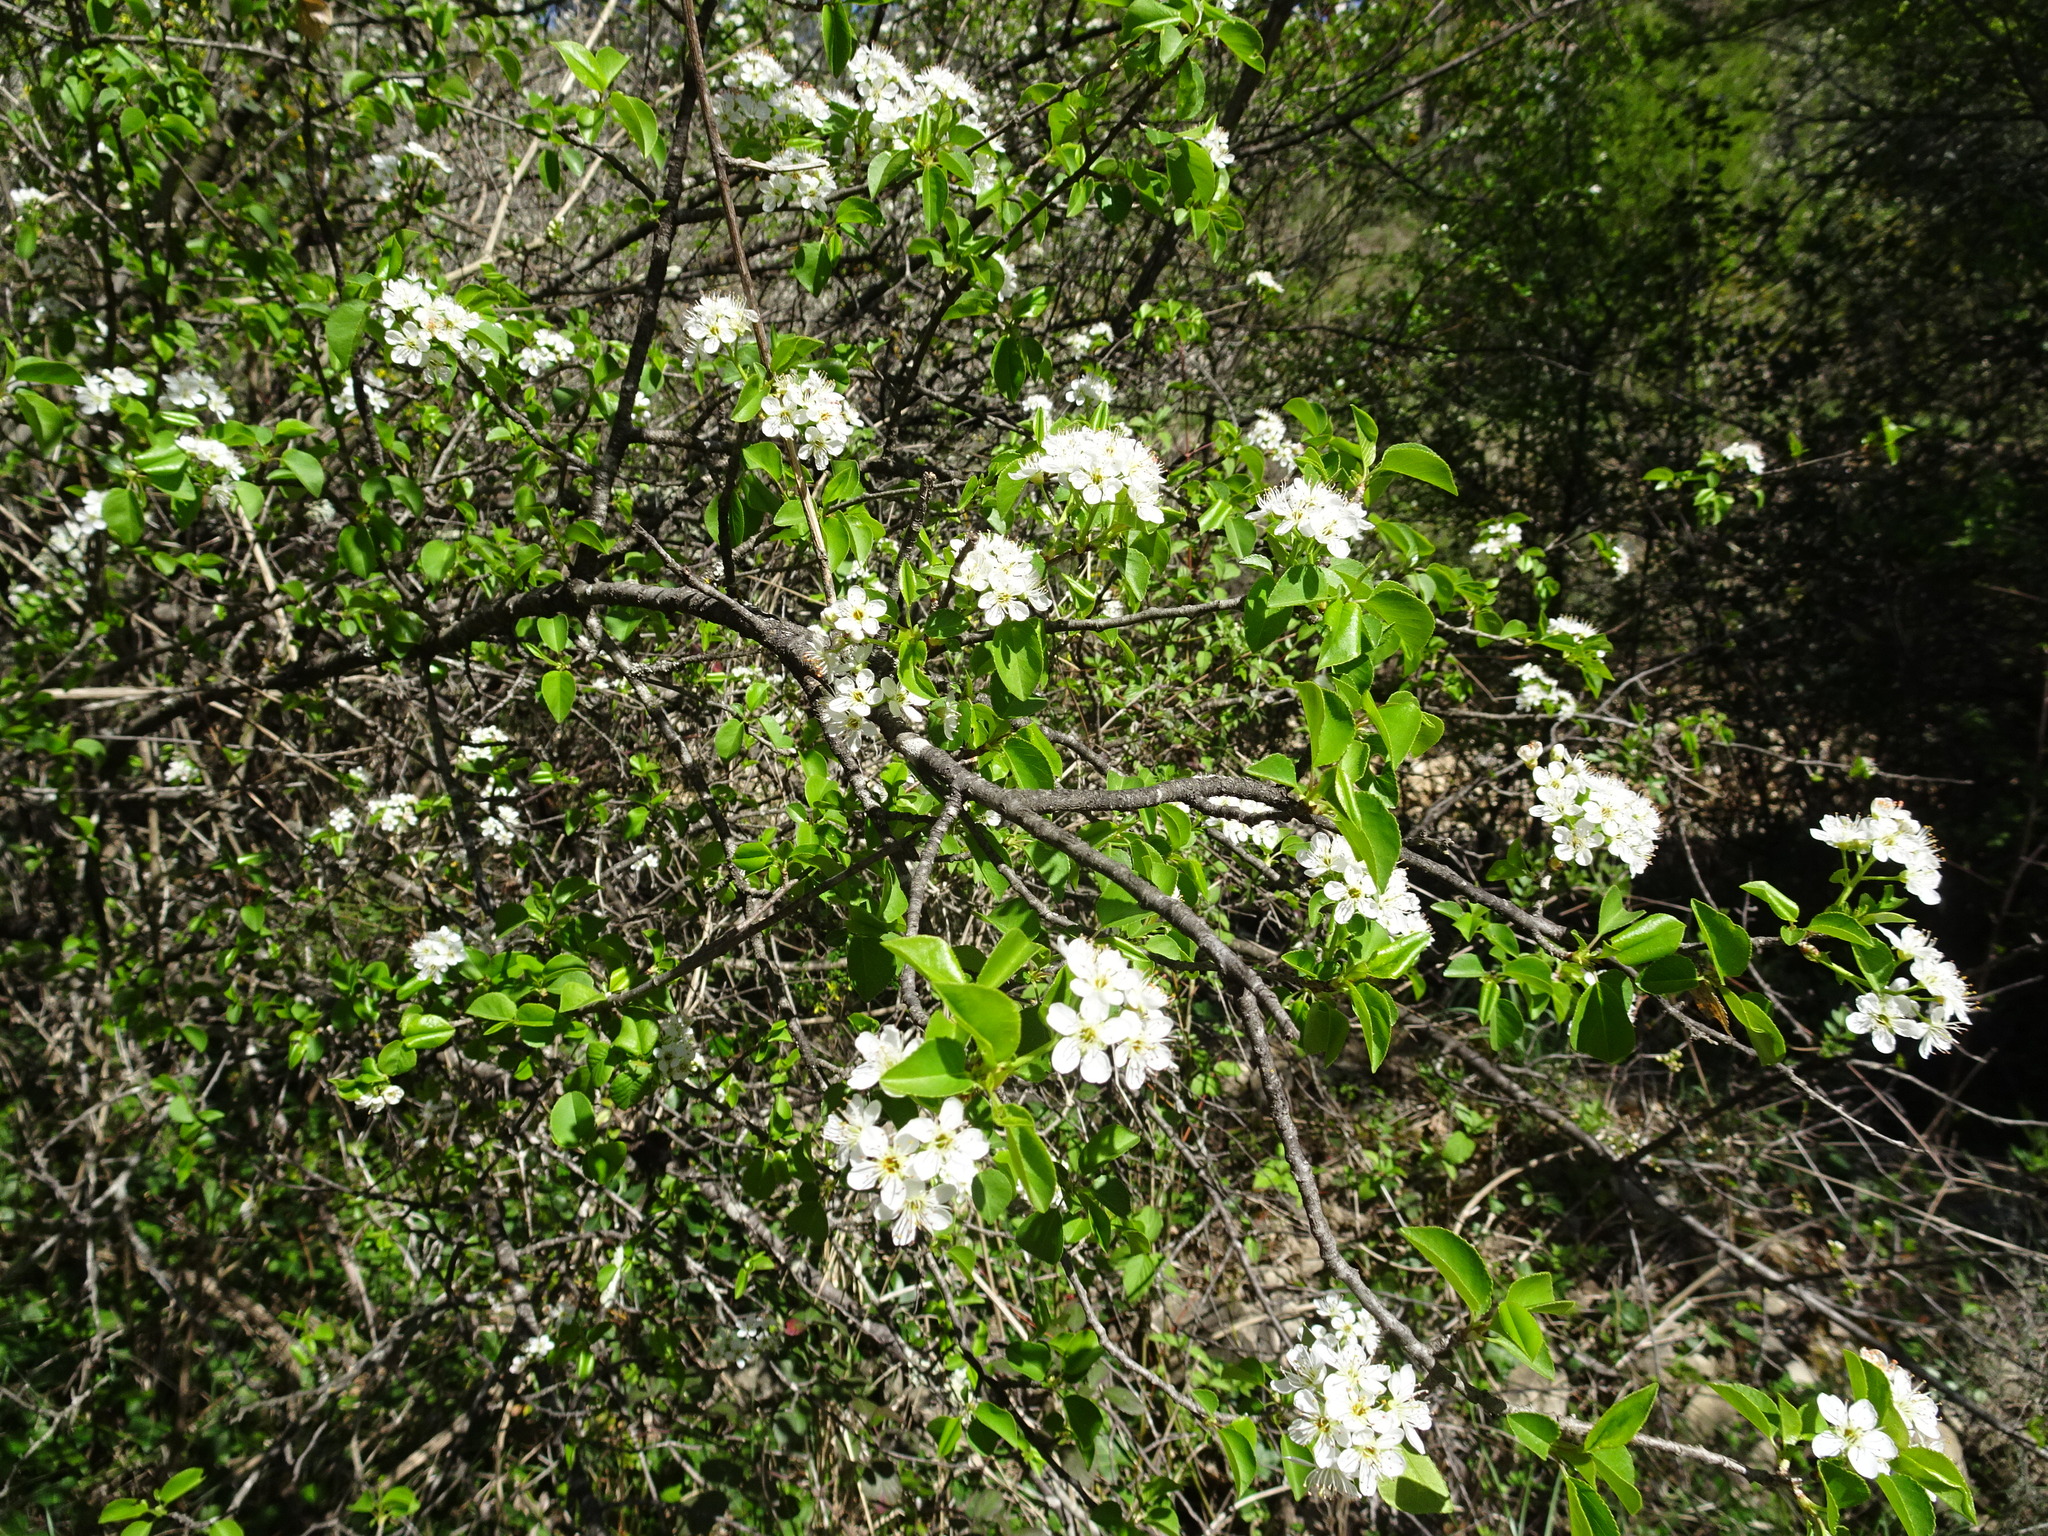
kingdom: Plantae
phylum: Tracheophyta
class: Magnoliopsida
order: Rosales
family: Rosaceae
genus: Prunus
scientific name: Prunus mahaleb
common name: Mahaleb cherry
